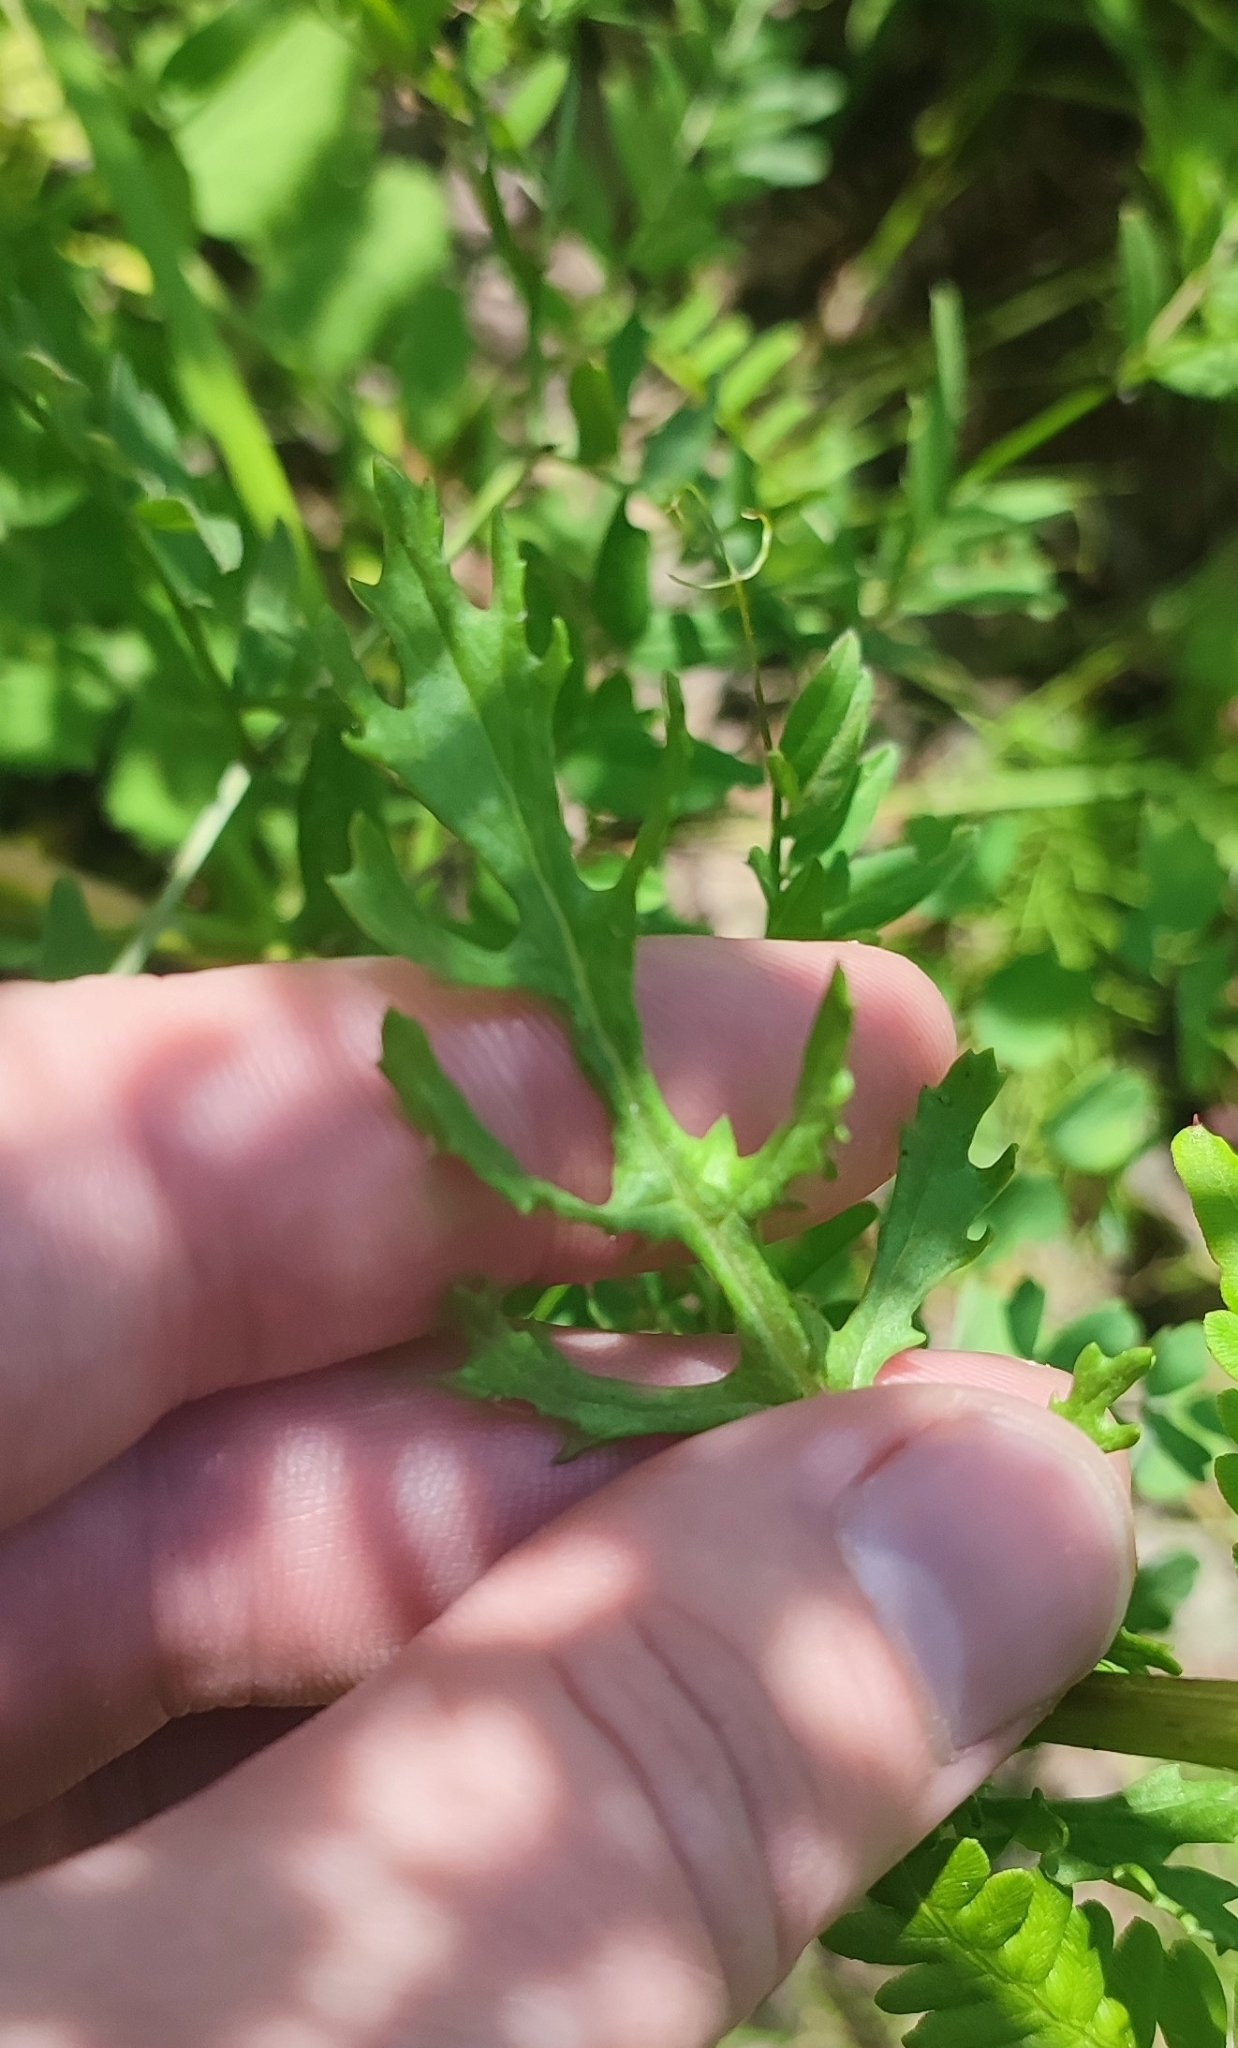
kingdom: Plantae
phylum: Tracheophyta
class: Magnoliopsida
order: Asterales
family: Asteraceae
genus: Jacobaea
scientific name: Jacobaea vulgaris
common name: Stinking willie
